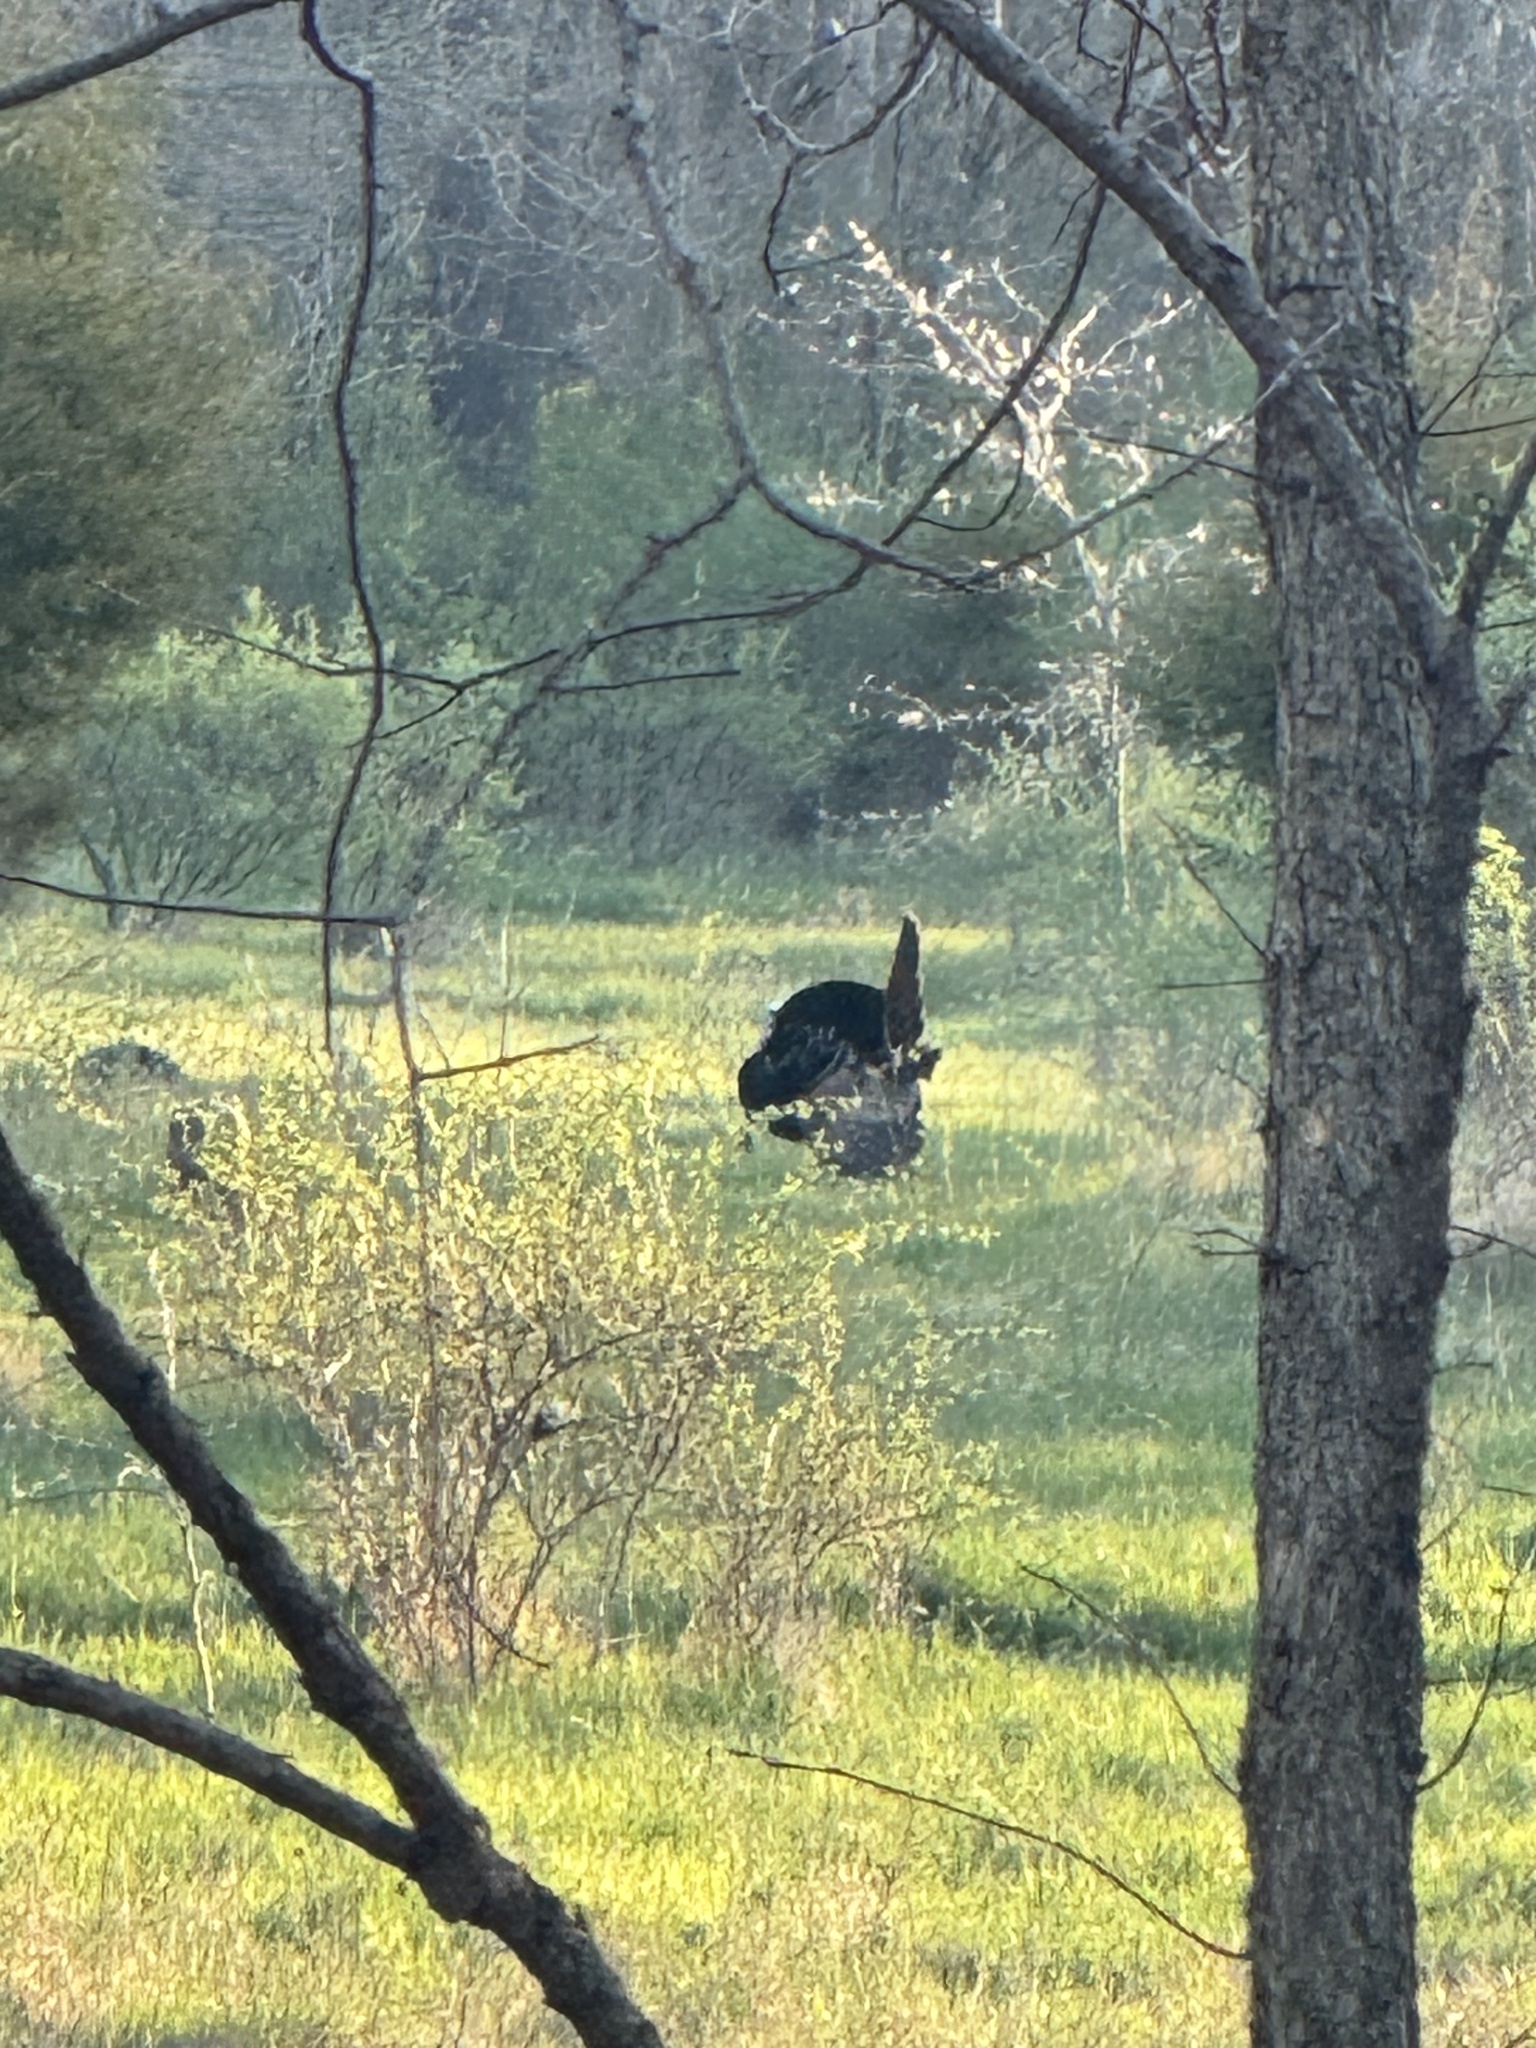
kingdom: Animalia
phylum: Chordata
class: Aves
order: Galliformes
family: Phasianidae
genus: Meleagris
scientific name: Meleagris gallopavo
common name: Wild turkey
